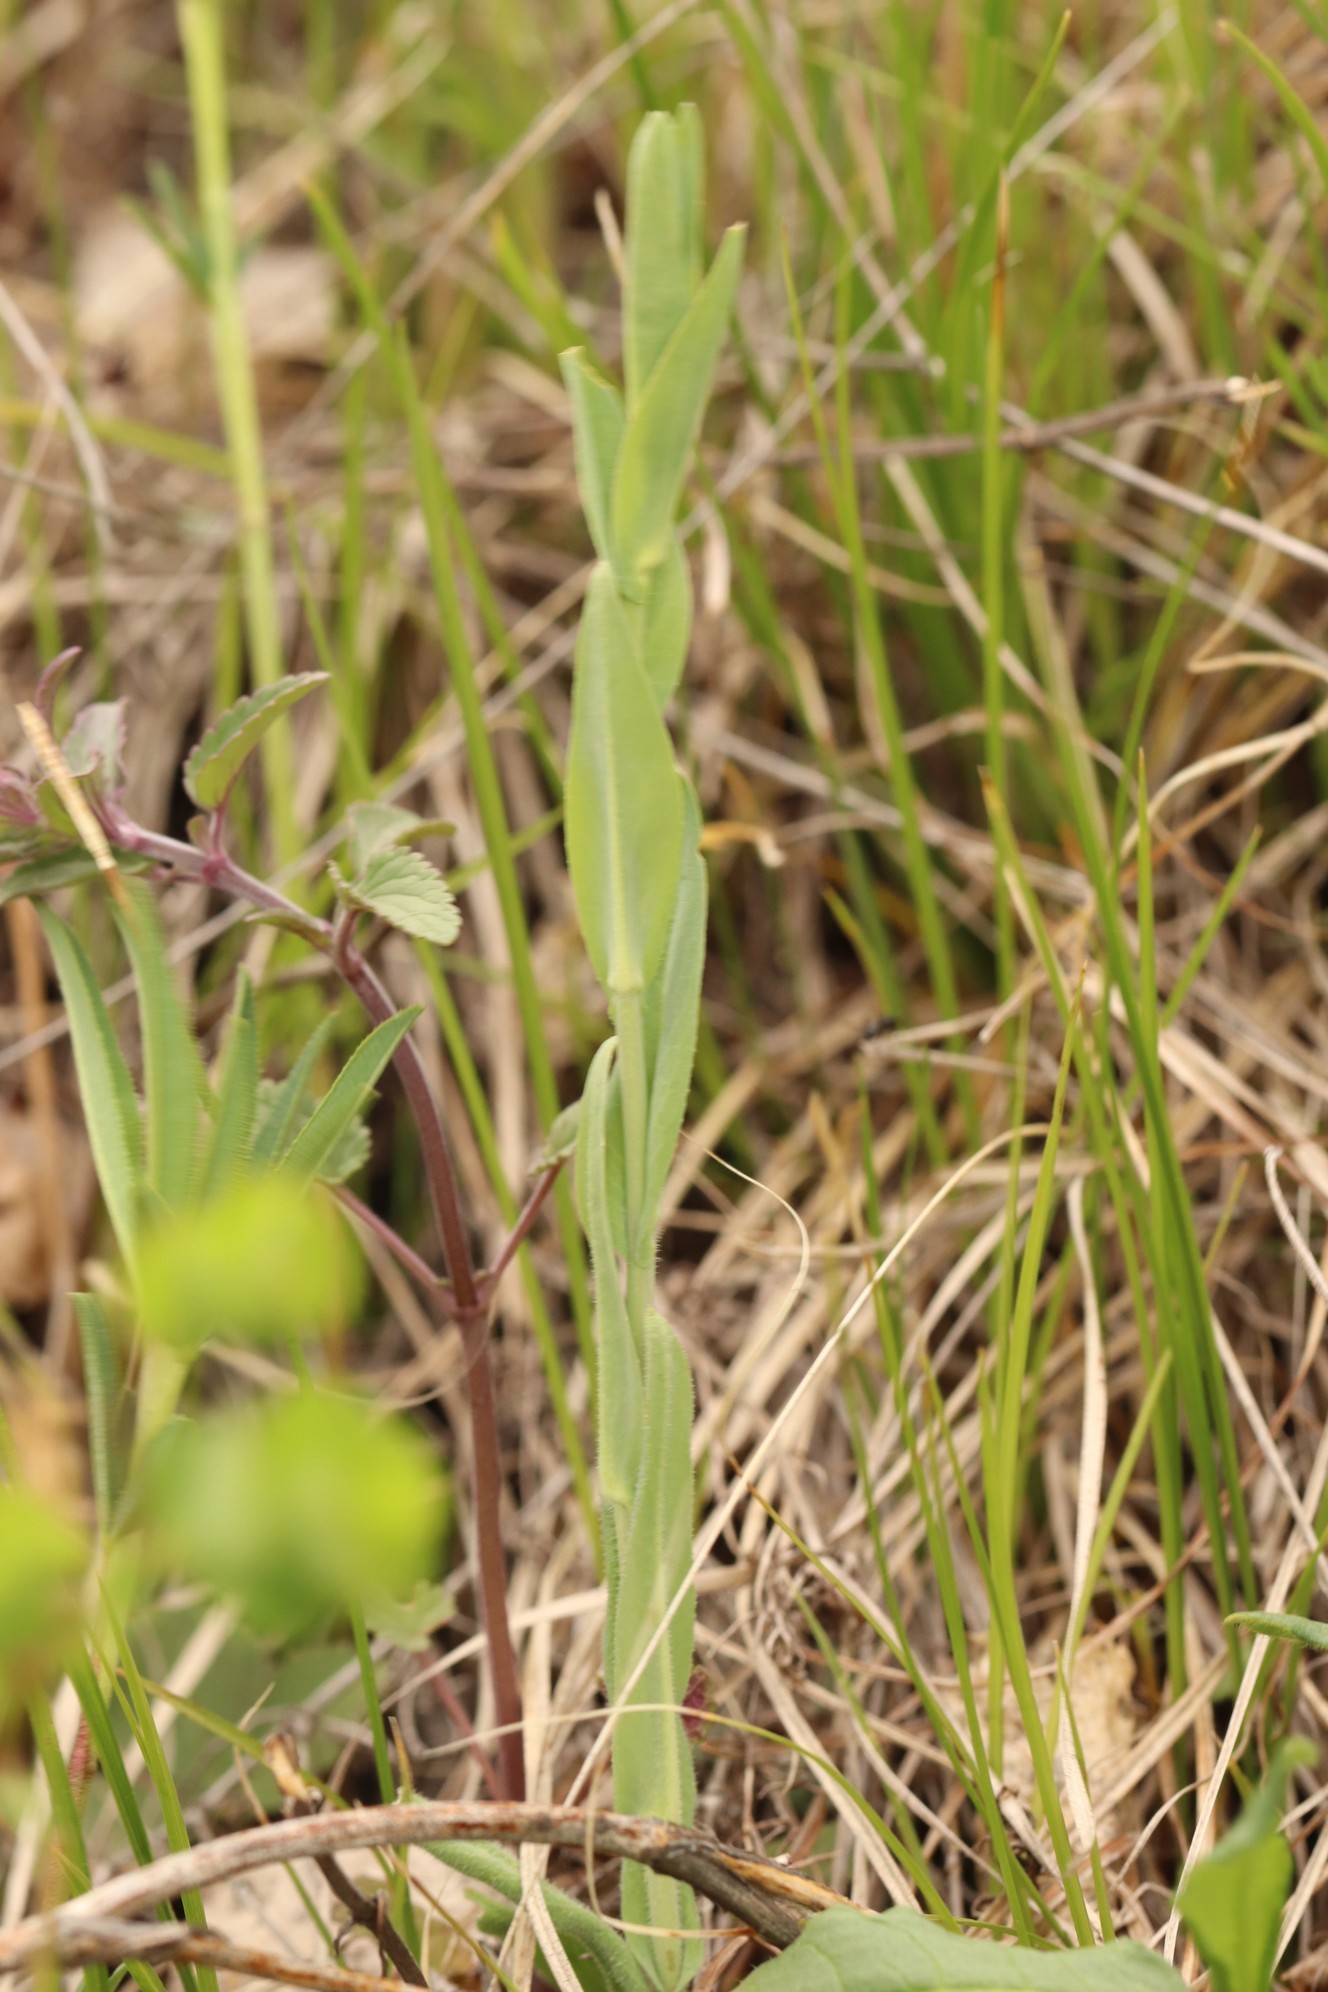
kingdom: Plantae
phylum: Tracheophyta
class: Magnoliopsida
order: Brassicales
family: Brassicaceae
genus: Turritis
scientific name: Turritis glabra
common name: Tower rockcress
